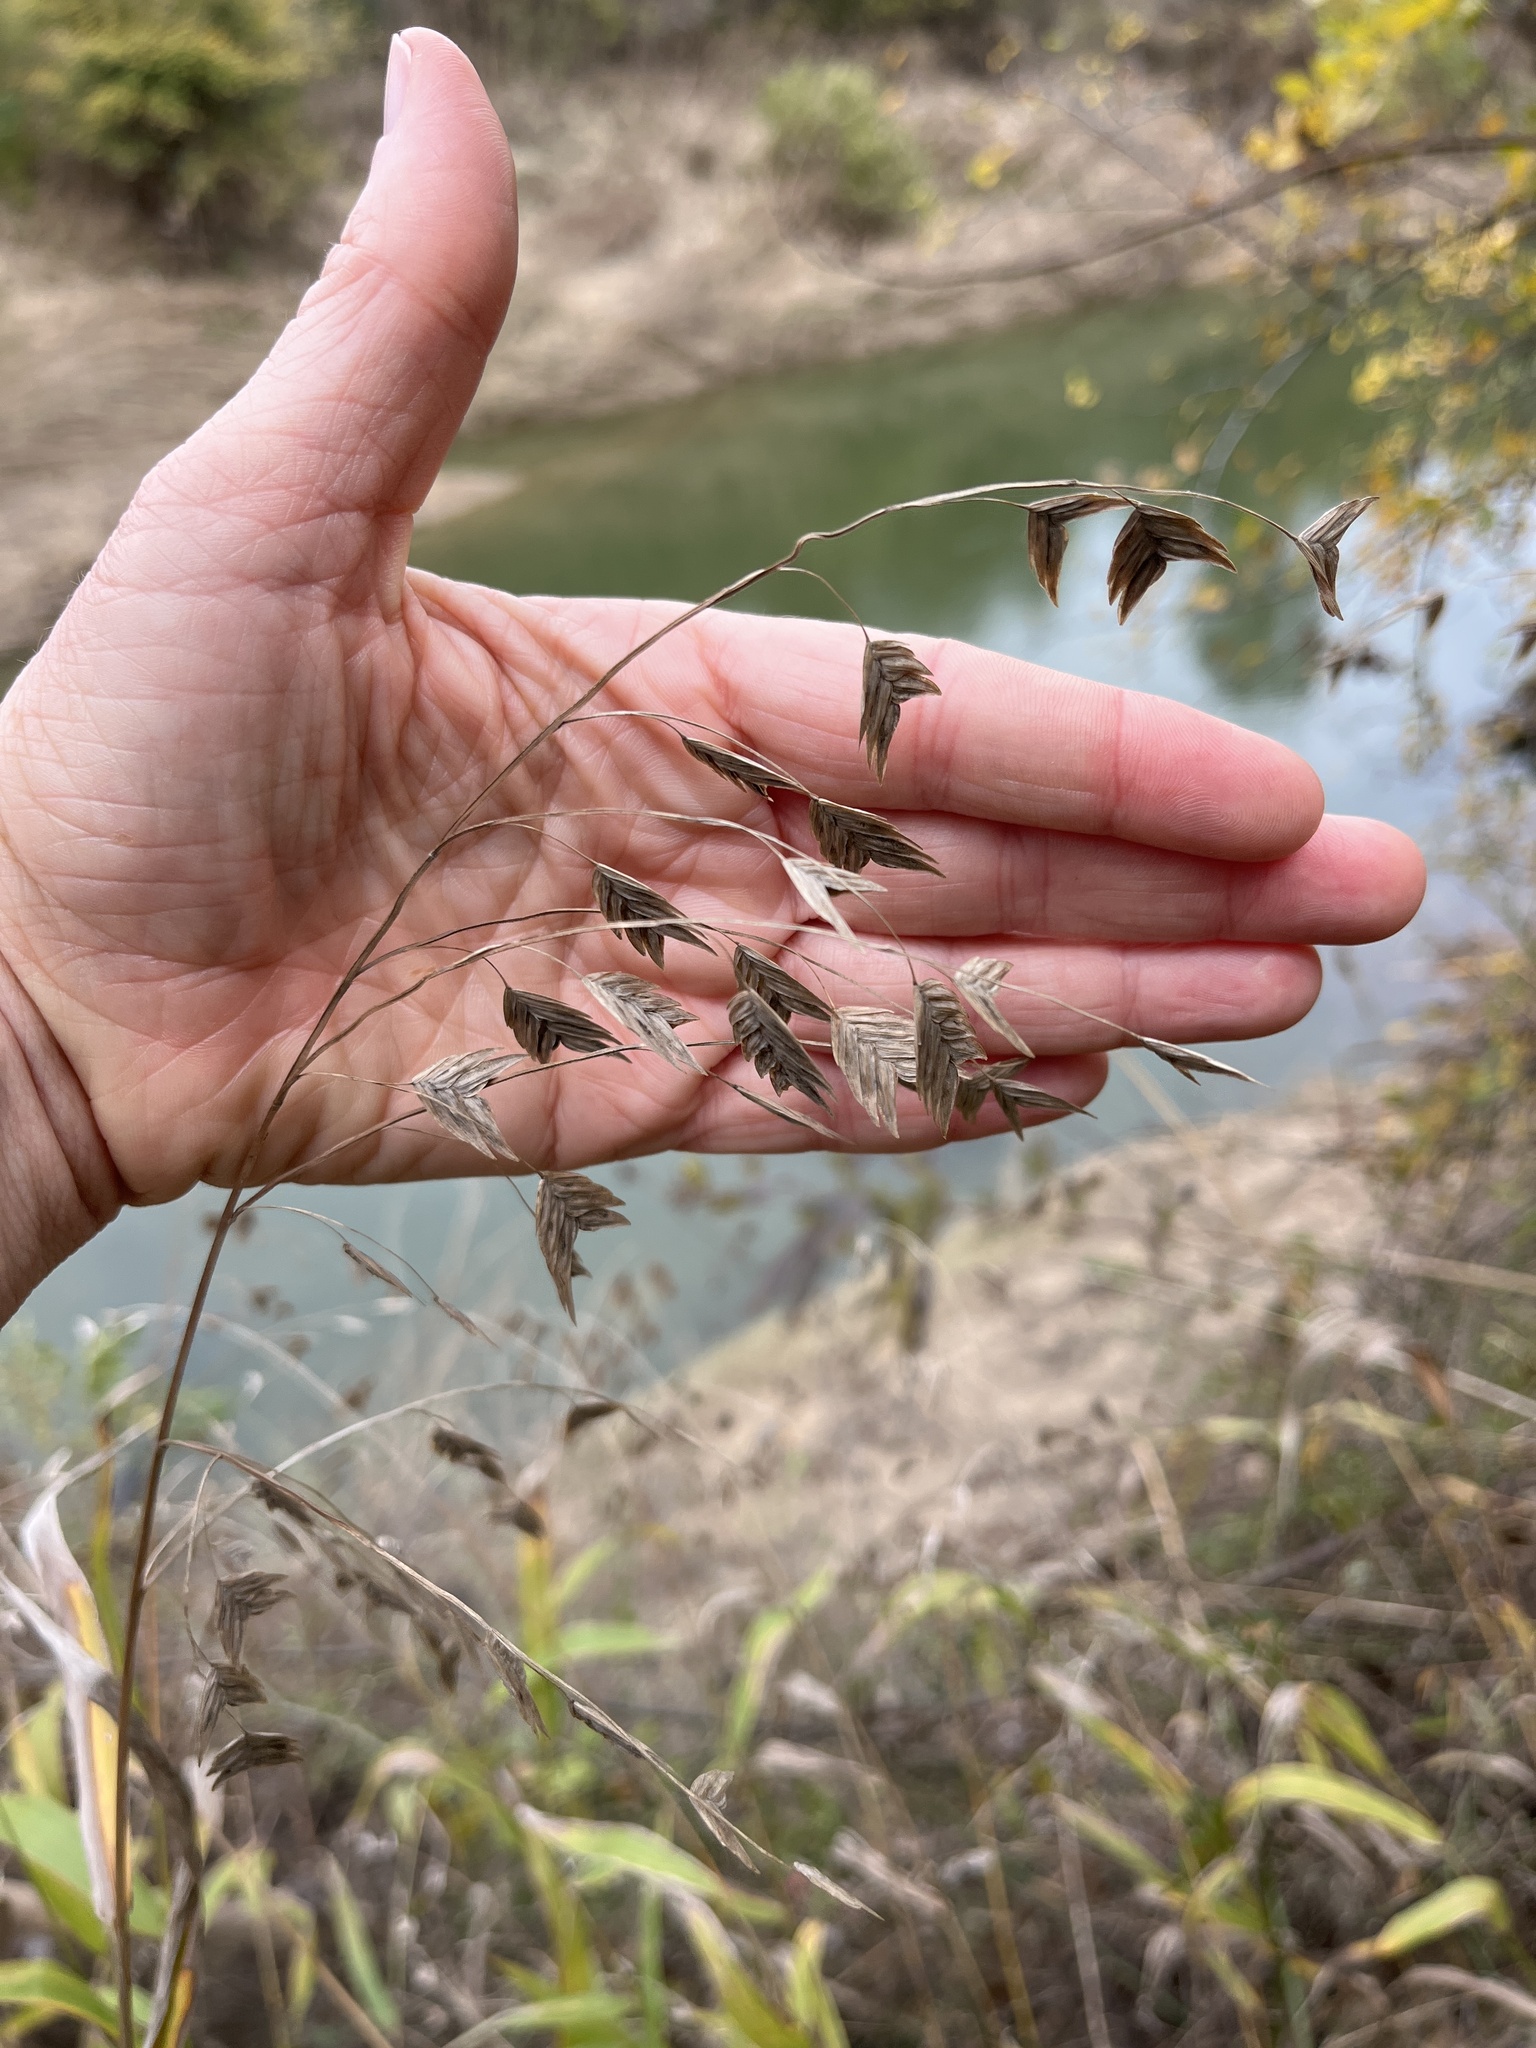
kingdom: Plantae
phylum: Tracheophyta
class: Liliopsida
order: Poales
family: Poaceae
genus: Chasmanthium
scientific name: Chasmanthium latifolium
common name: Broad-leaved chasmanthium
